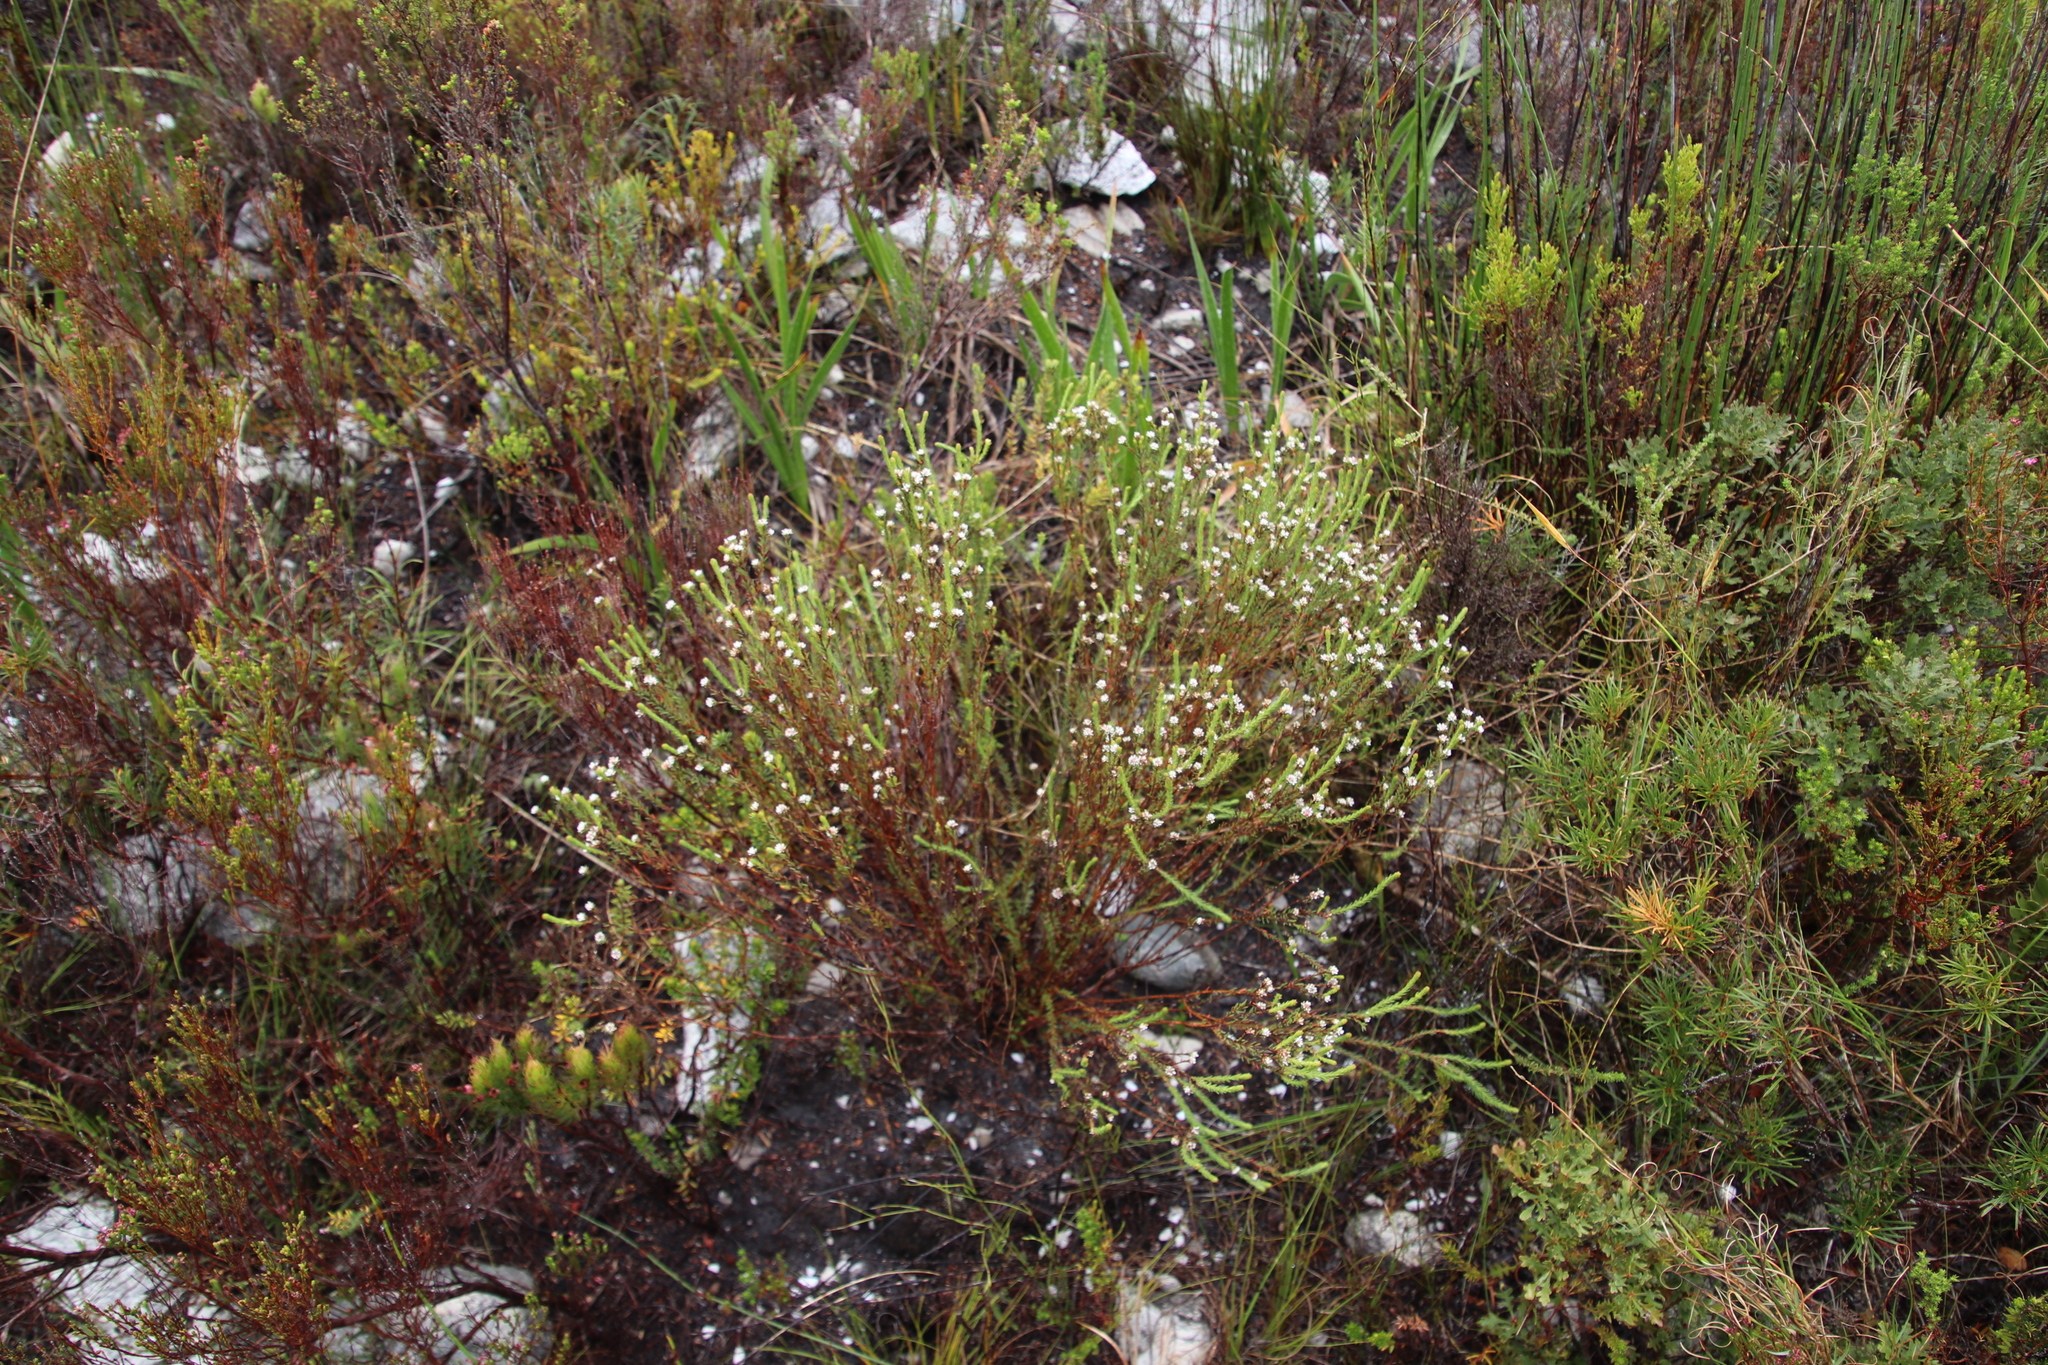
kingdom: Plantae
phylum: Tracheophyta
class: Magnoliopsida
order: Bruniales
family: Bruniaceae
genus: Staavia
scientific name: Staavia radiata
